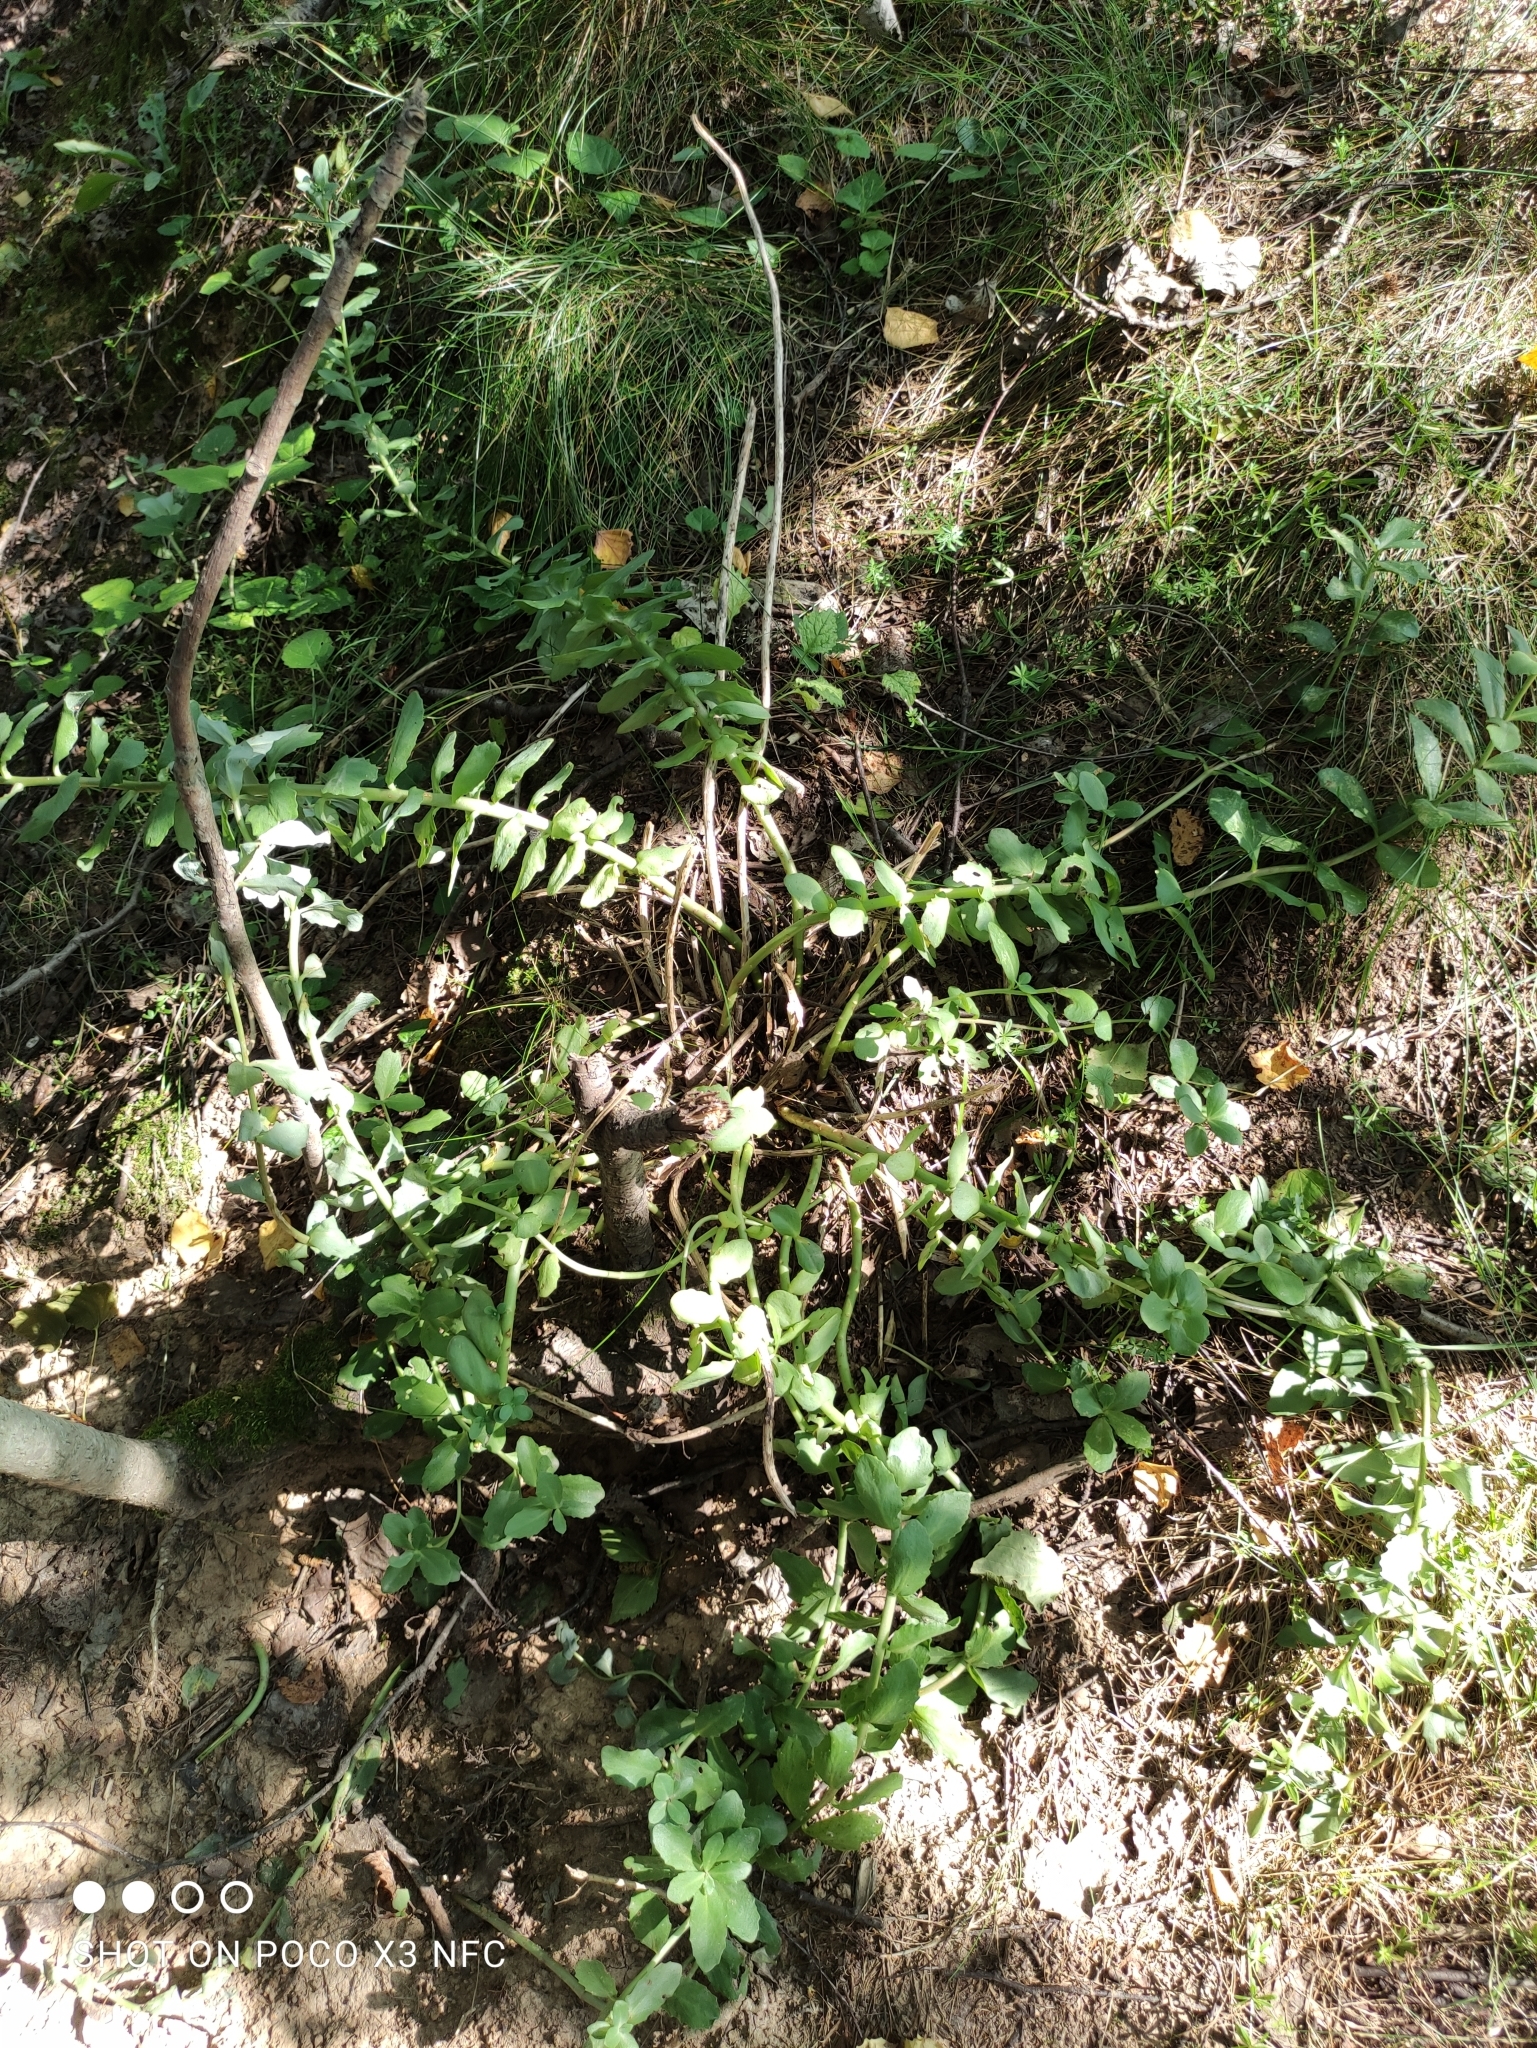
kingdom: Plantae
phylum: Tracheophyta
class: Magnoliopsida
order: Saxifragales
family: Crassulaceae
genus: Hylotelephium
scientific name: Hylotelephium maximum
